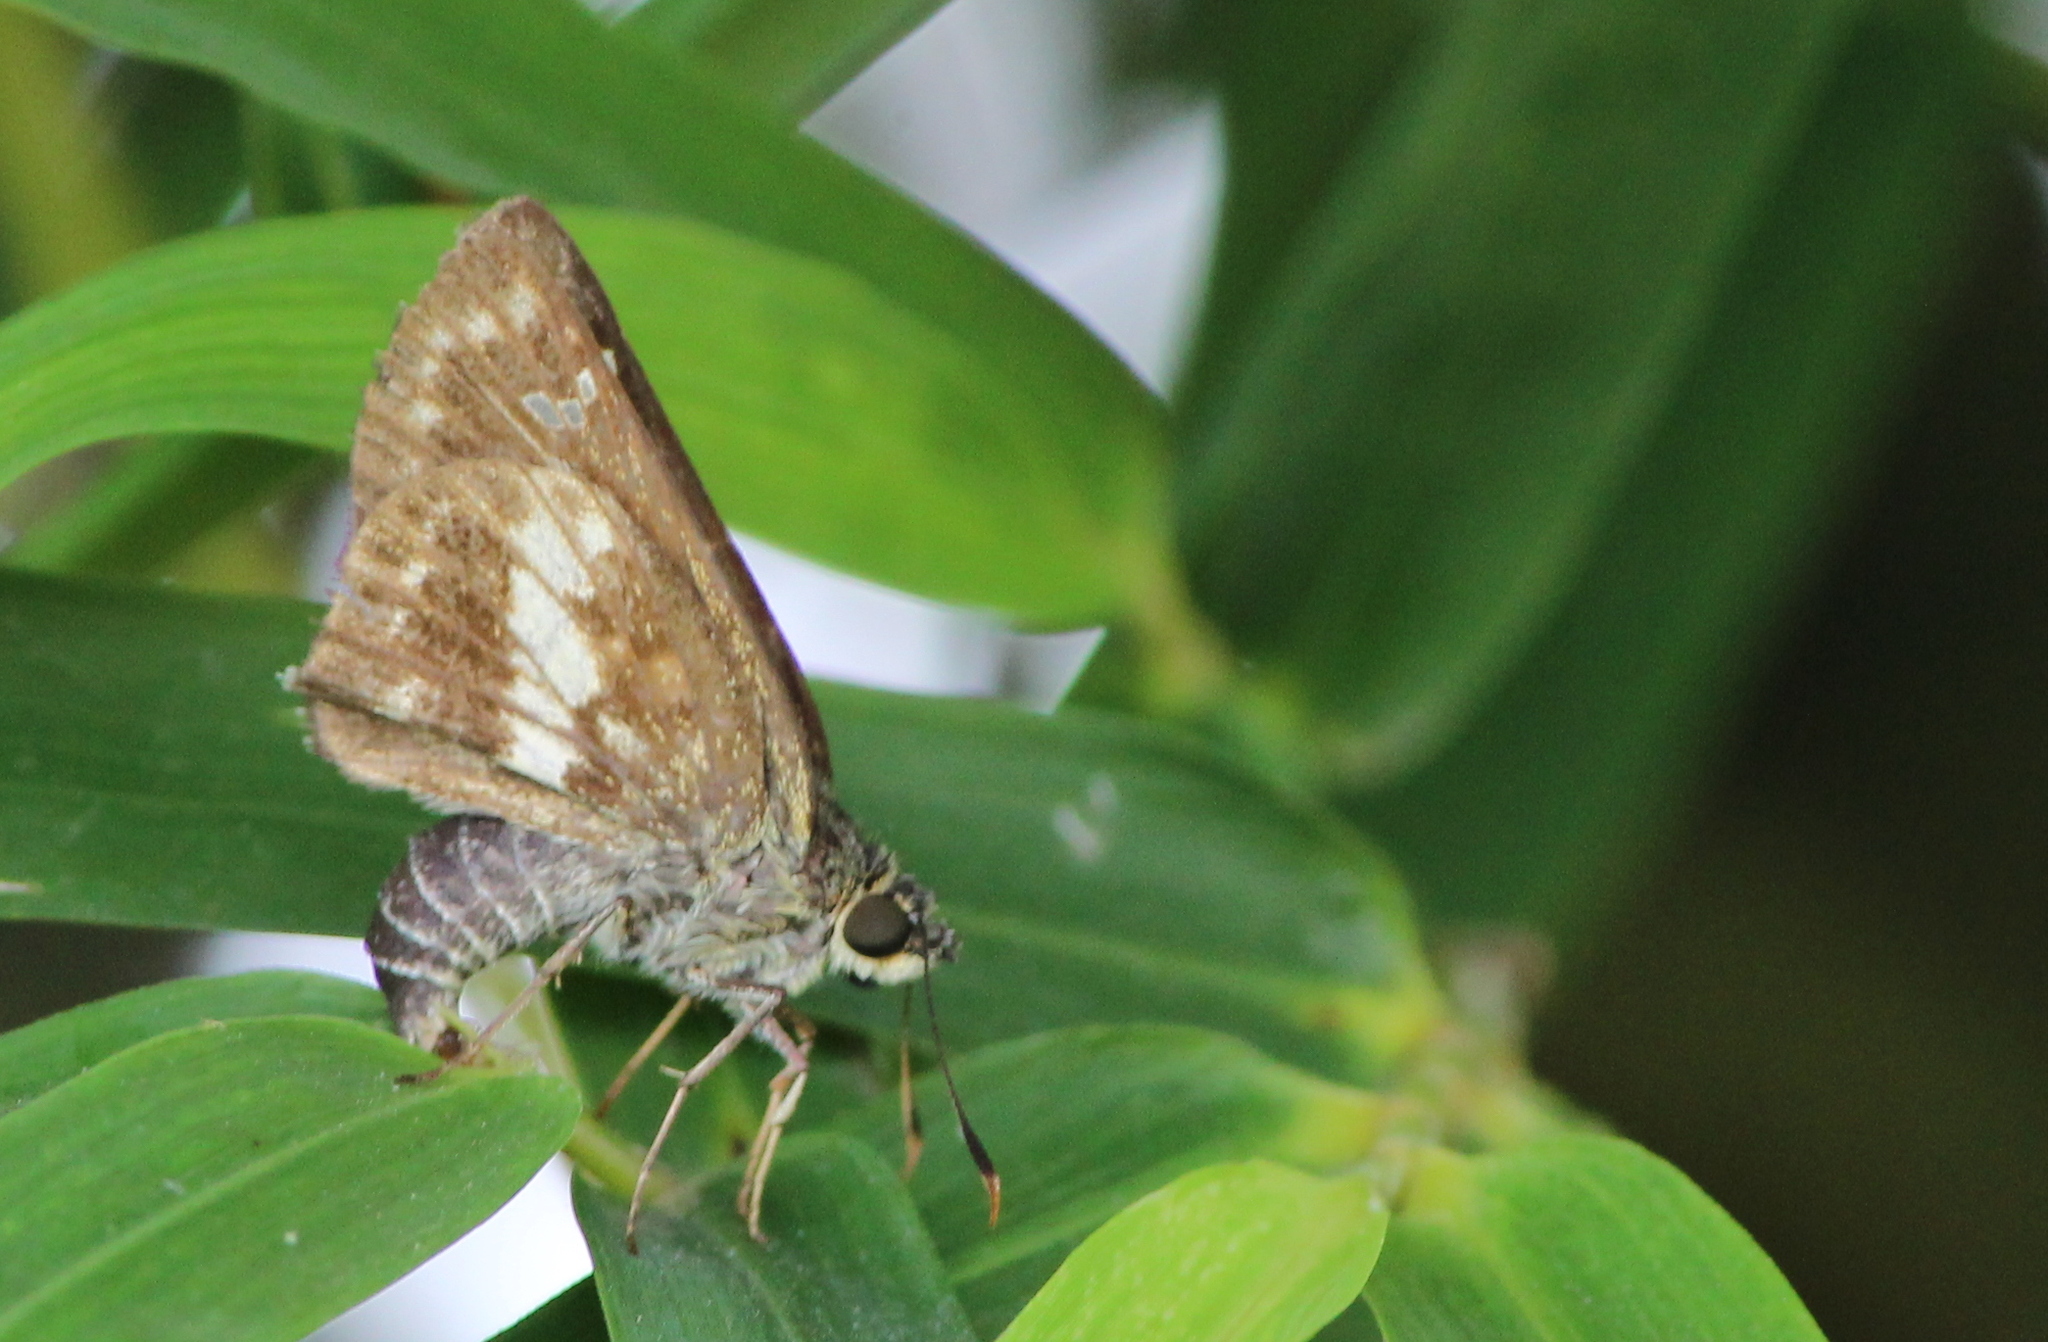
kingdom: Animalia
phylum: Arthropoda
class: Insecta
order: Lepidoptera
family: Hesperiidae
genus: Halpe
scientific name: Halpe porus
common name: Moore's ace
